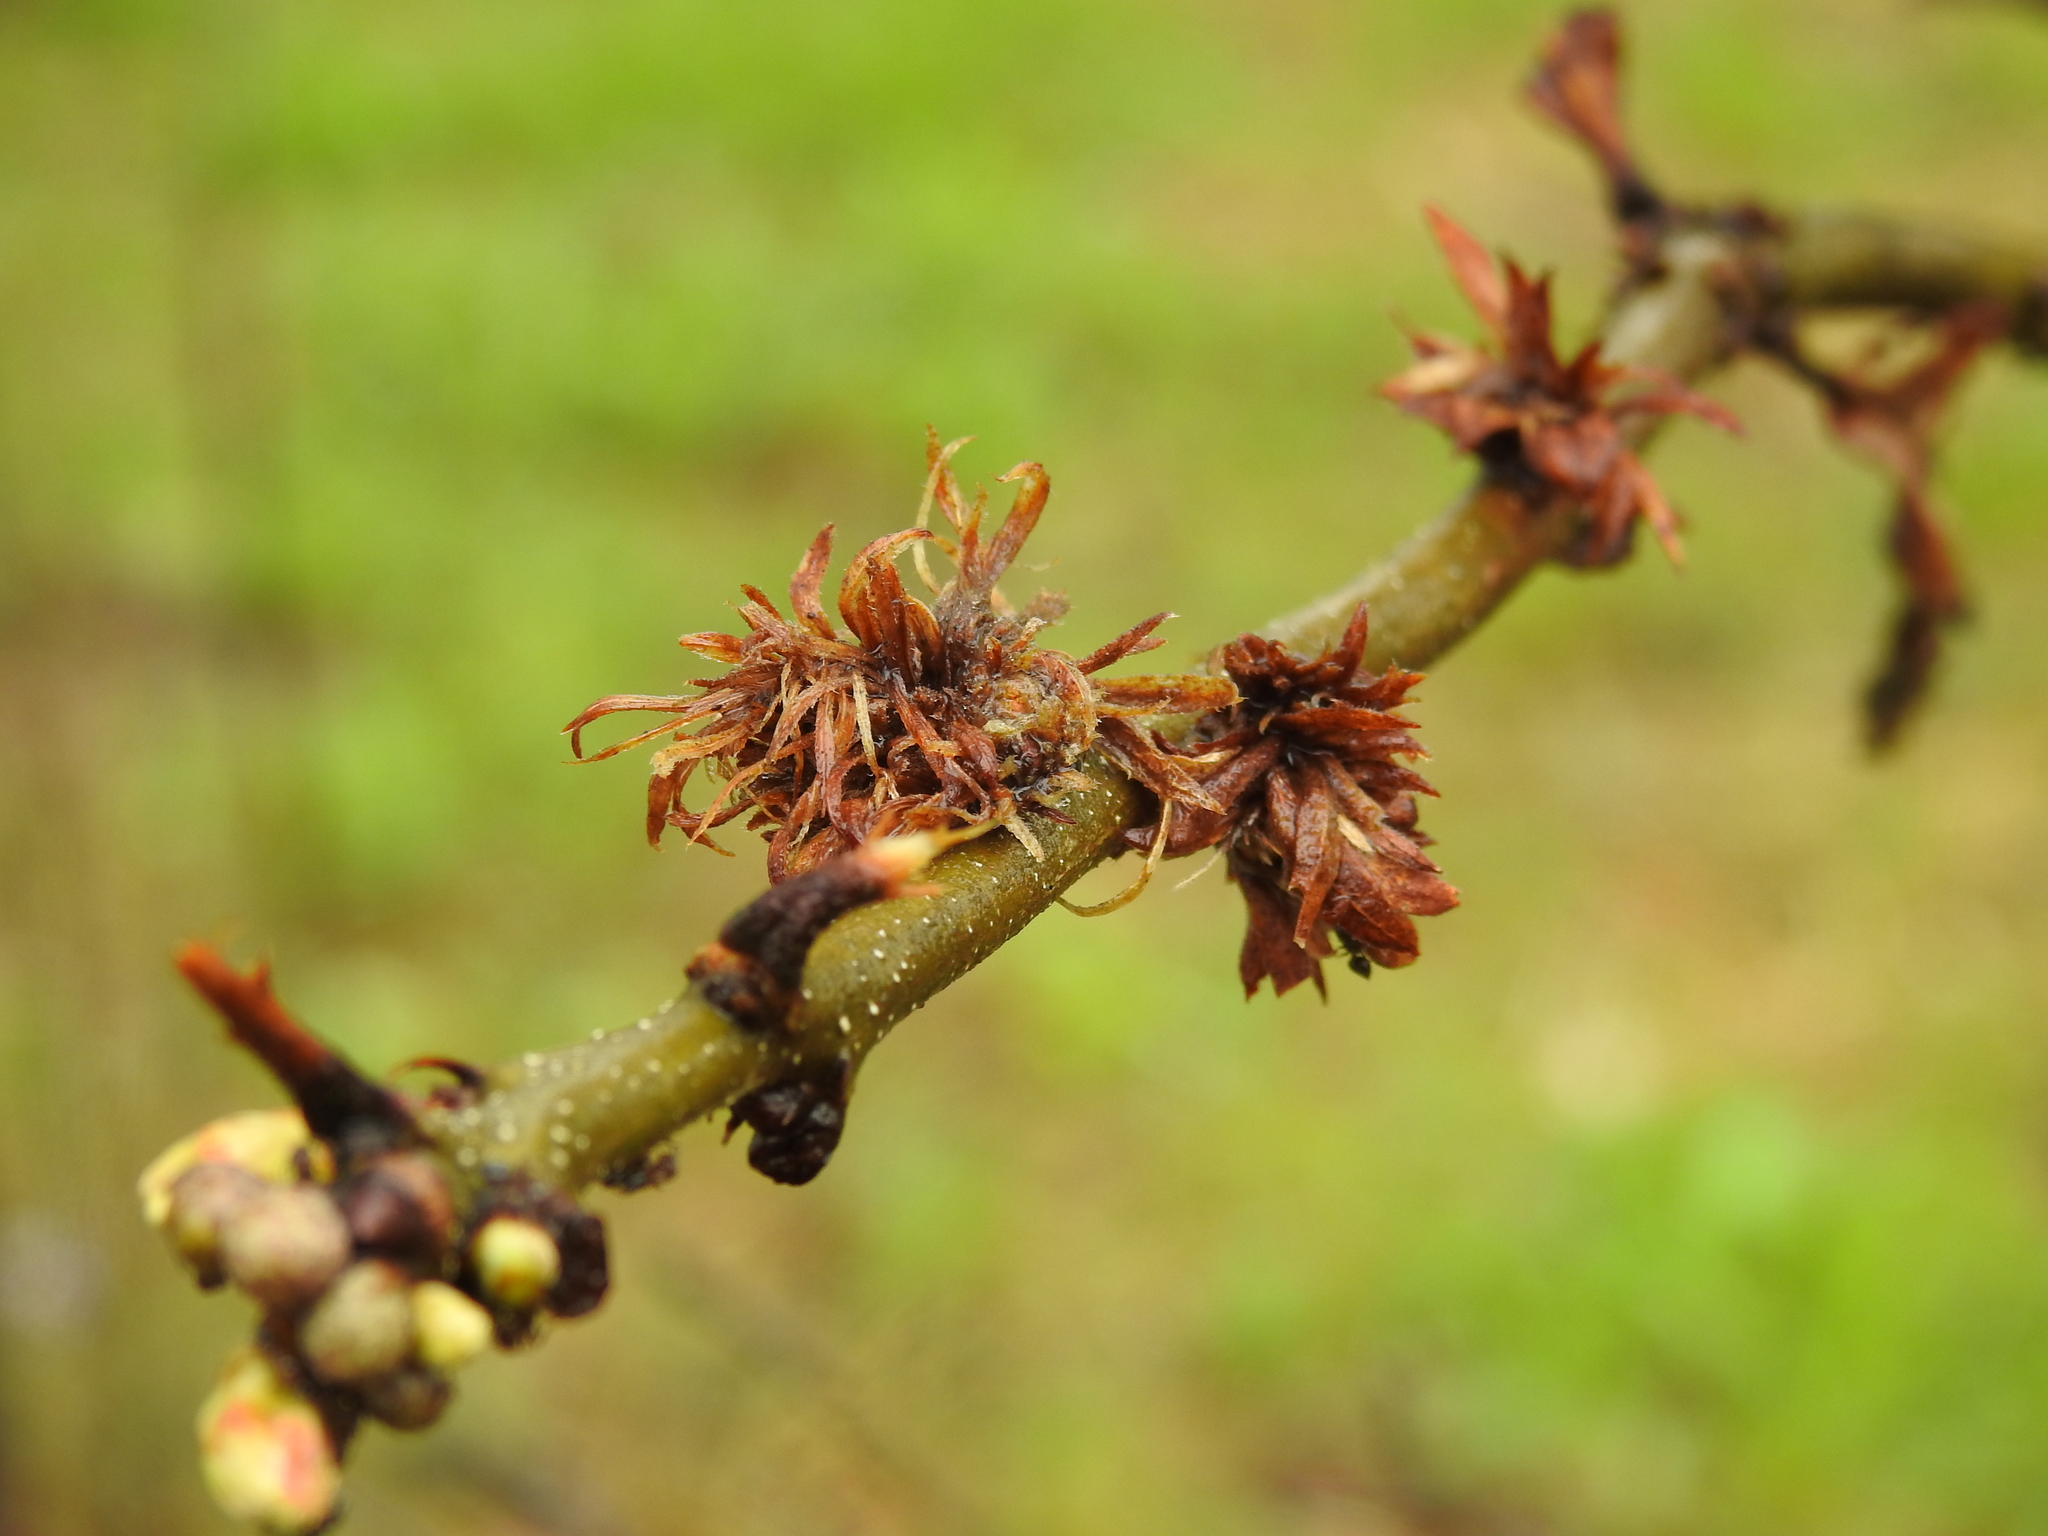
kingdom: Animalia
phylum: Arthropoda
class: Insecta
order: Hymenoptera
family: Cynipidae
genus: Andricus
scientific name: Andricus
